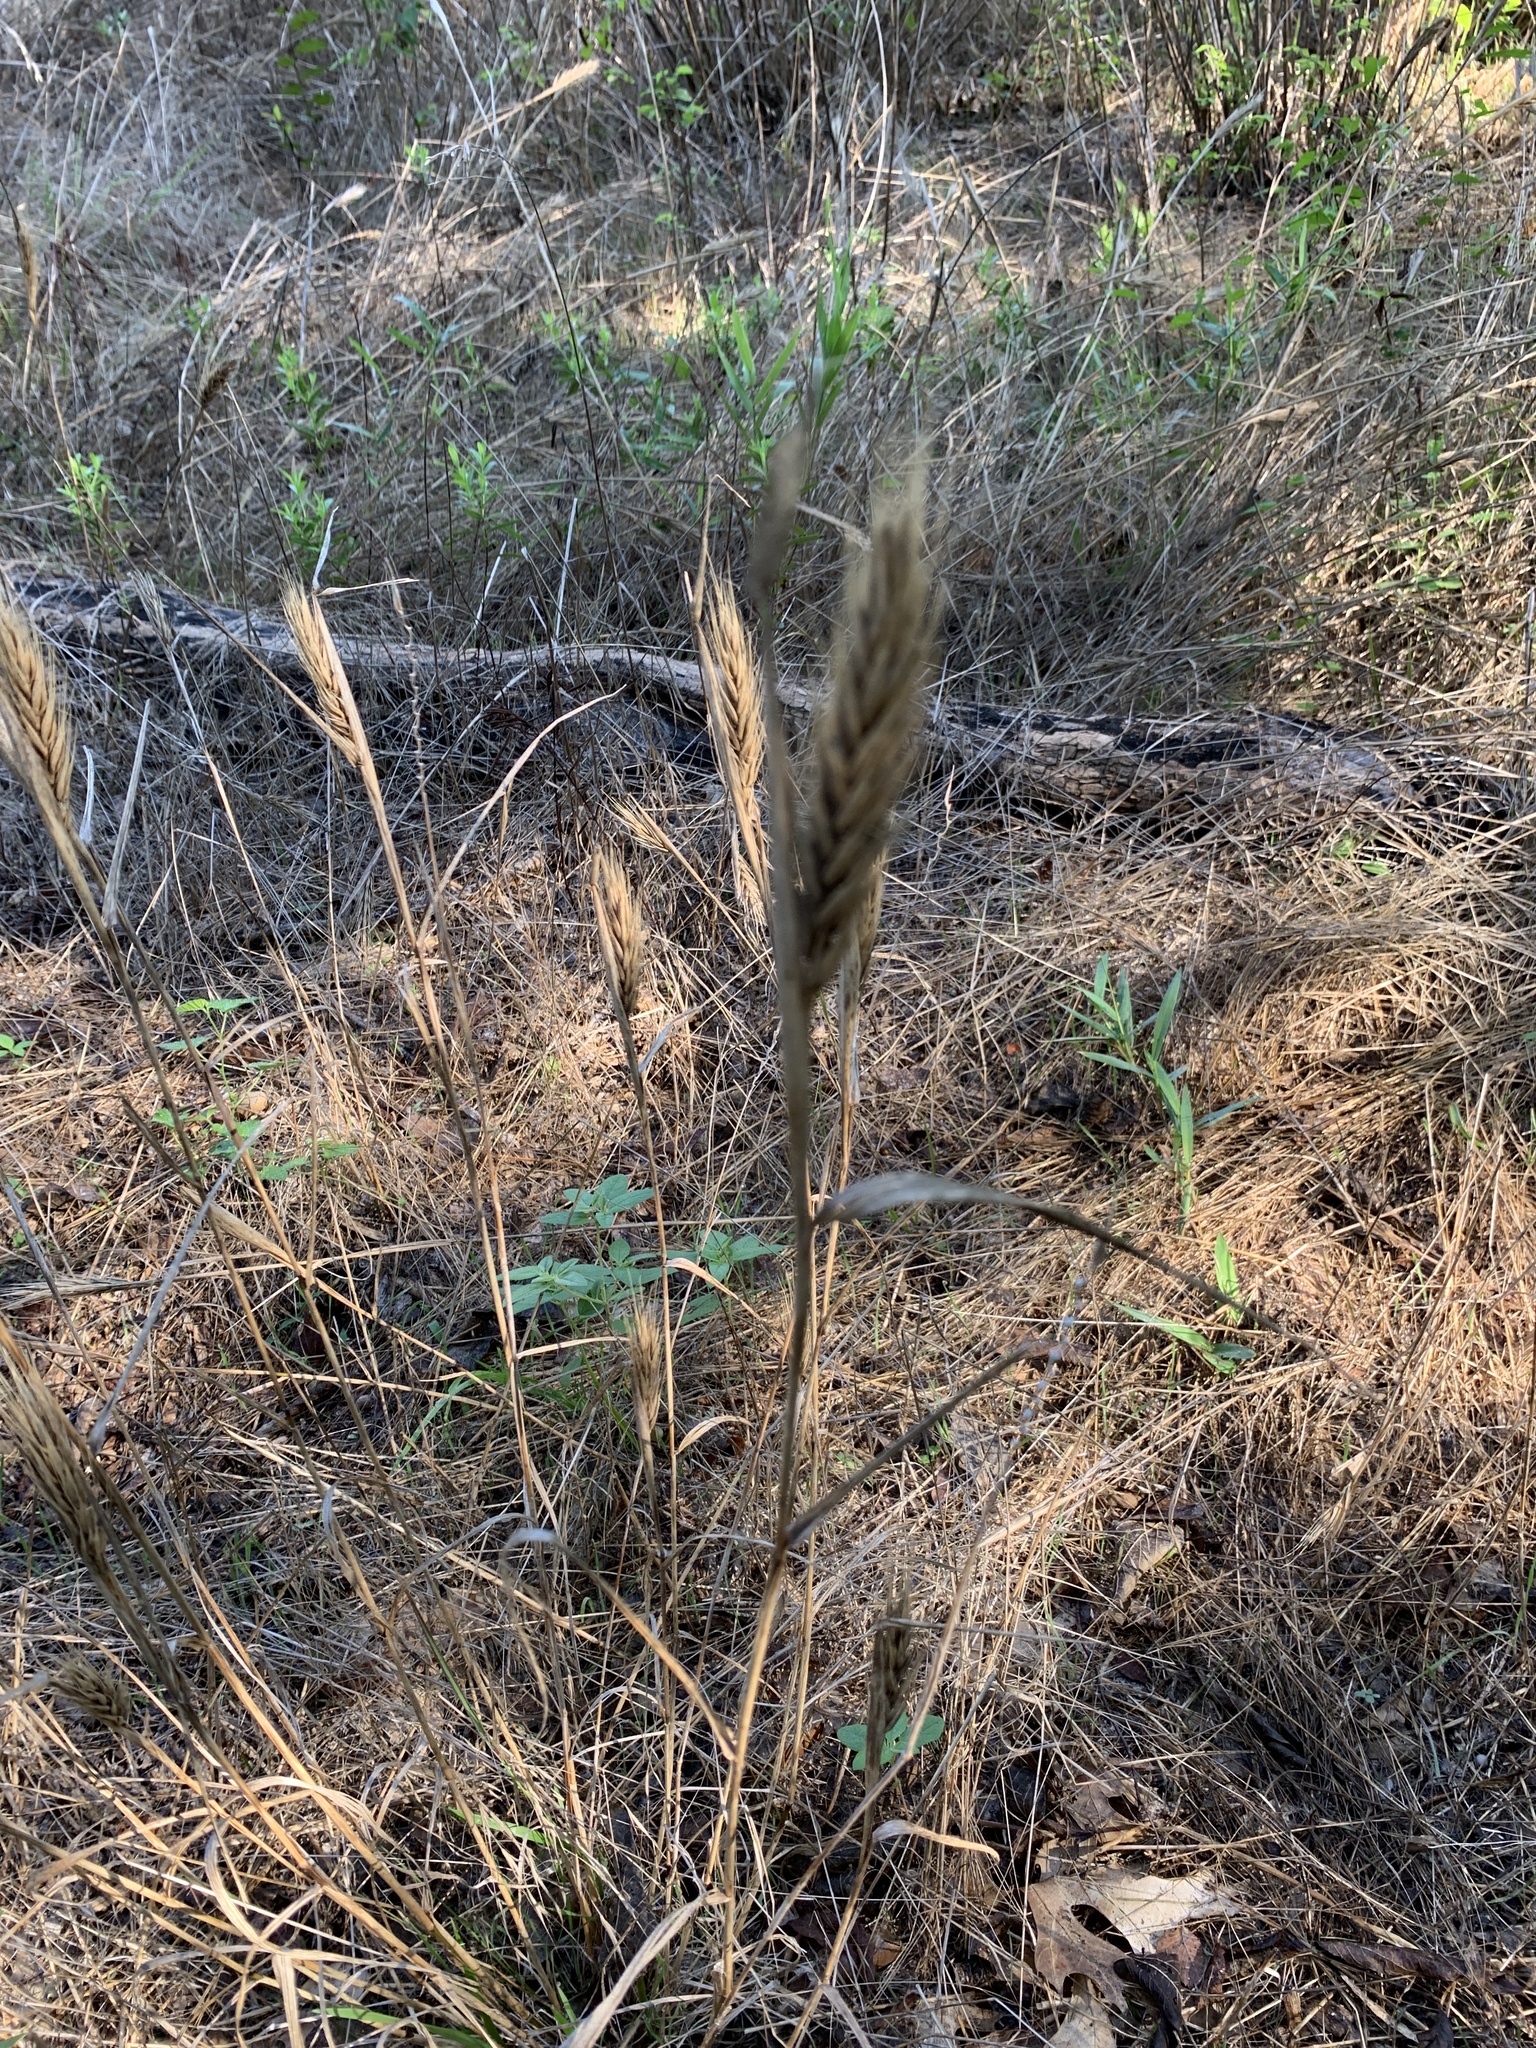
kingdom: Plantae
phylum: Tracheophyta
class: Liliopsida
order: Poales
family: Poaceae
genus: Elymus
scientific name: Elymus virginicus
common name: Common eastern wildrye
